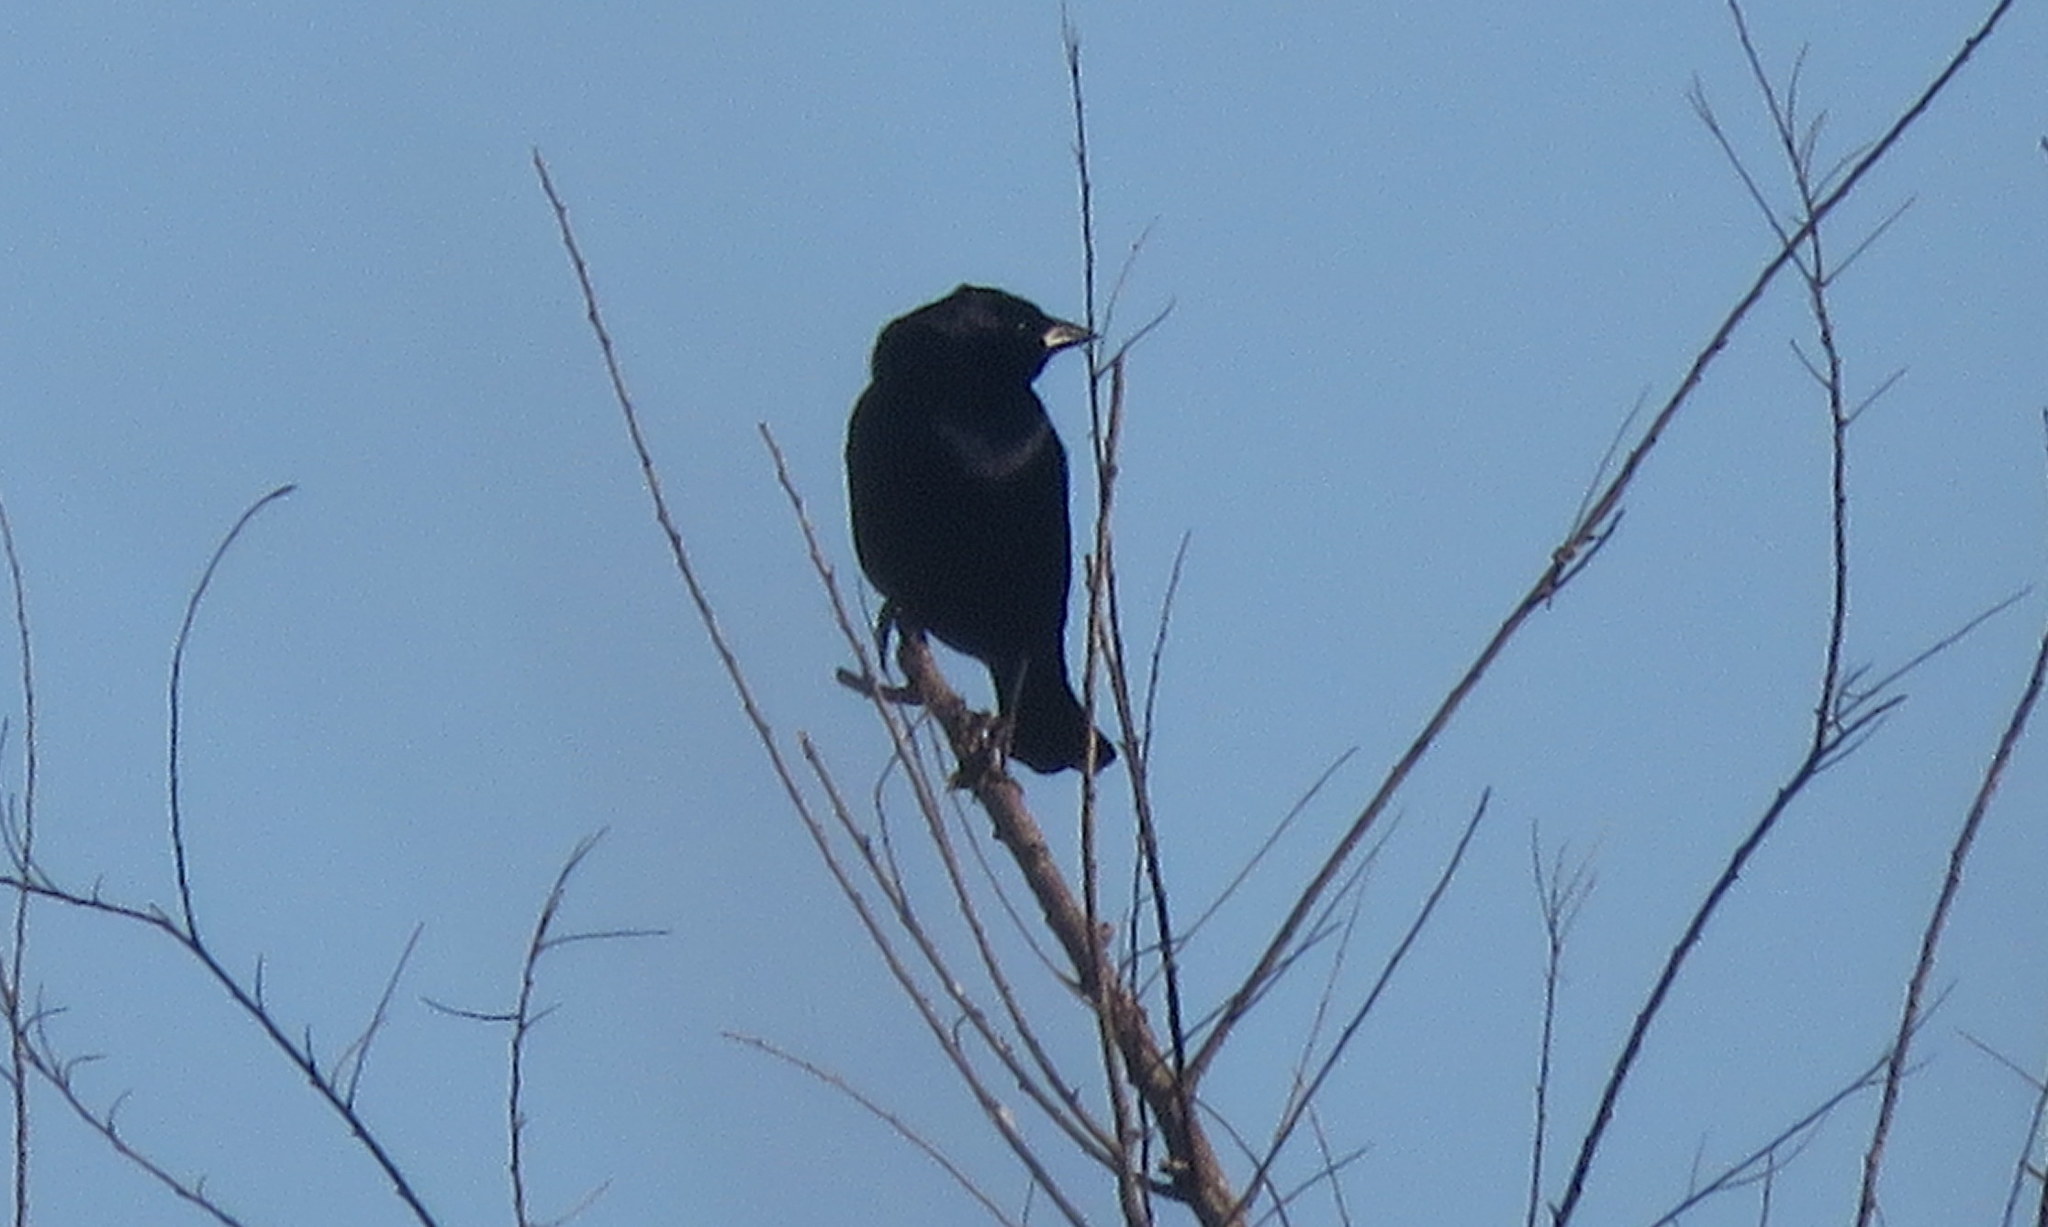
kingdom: Animalia
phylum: Chordata
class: Aves
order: Passeriformes
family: Icteridae
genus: Molothrus
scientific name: Molothrus bonariensis
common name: Shiny cowbird
